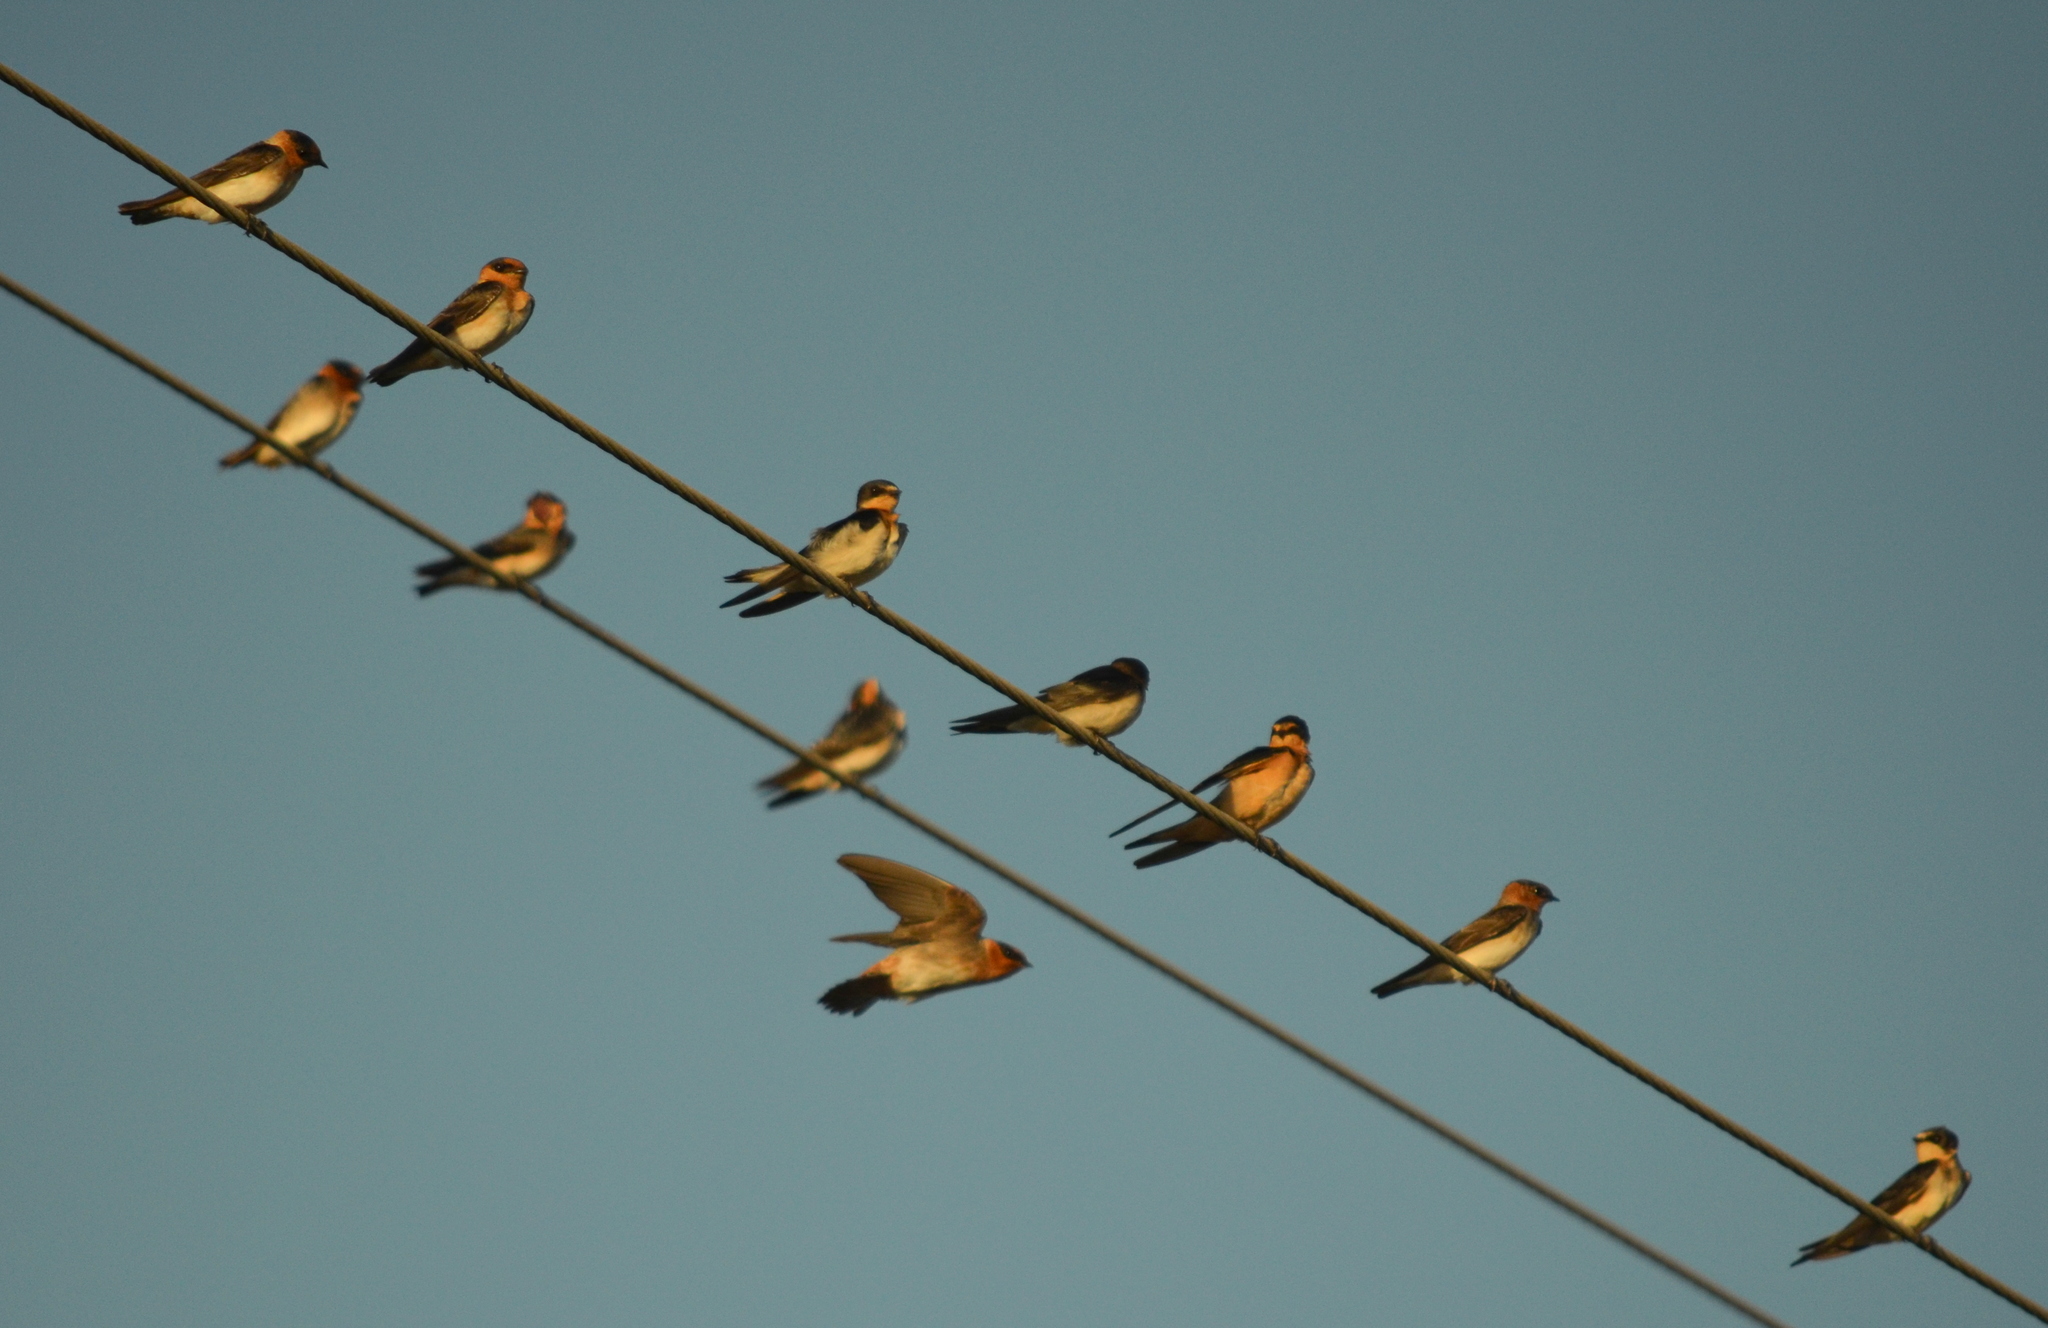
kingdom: Animalia
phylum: Chordata
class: Aves
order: Passeriformes
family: Hirundinidae
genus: Petrochelidon
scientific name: Petrochelidon fulva
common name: Cave swallow
